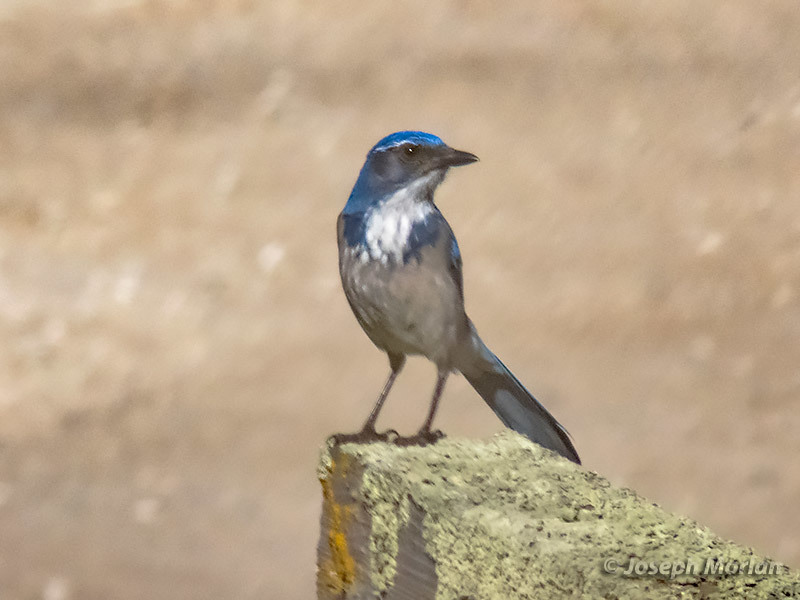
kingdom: Animalia
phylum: Chordata
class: Aves
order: Passeriformes
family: Corvidae
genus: Aphelocoma
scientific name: Aphelocoma californica
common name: California scrub-jay
